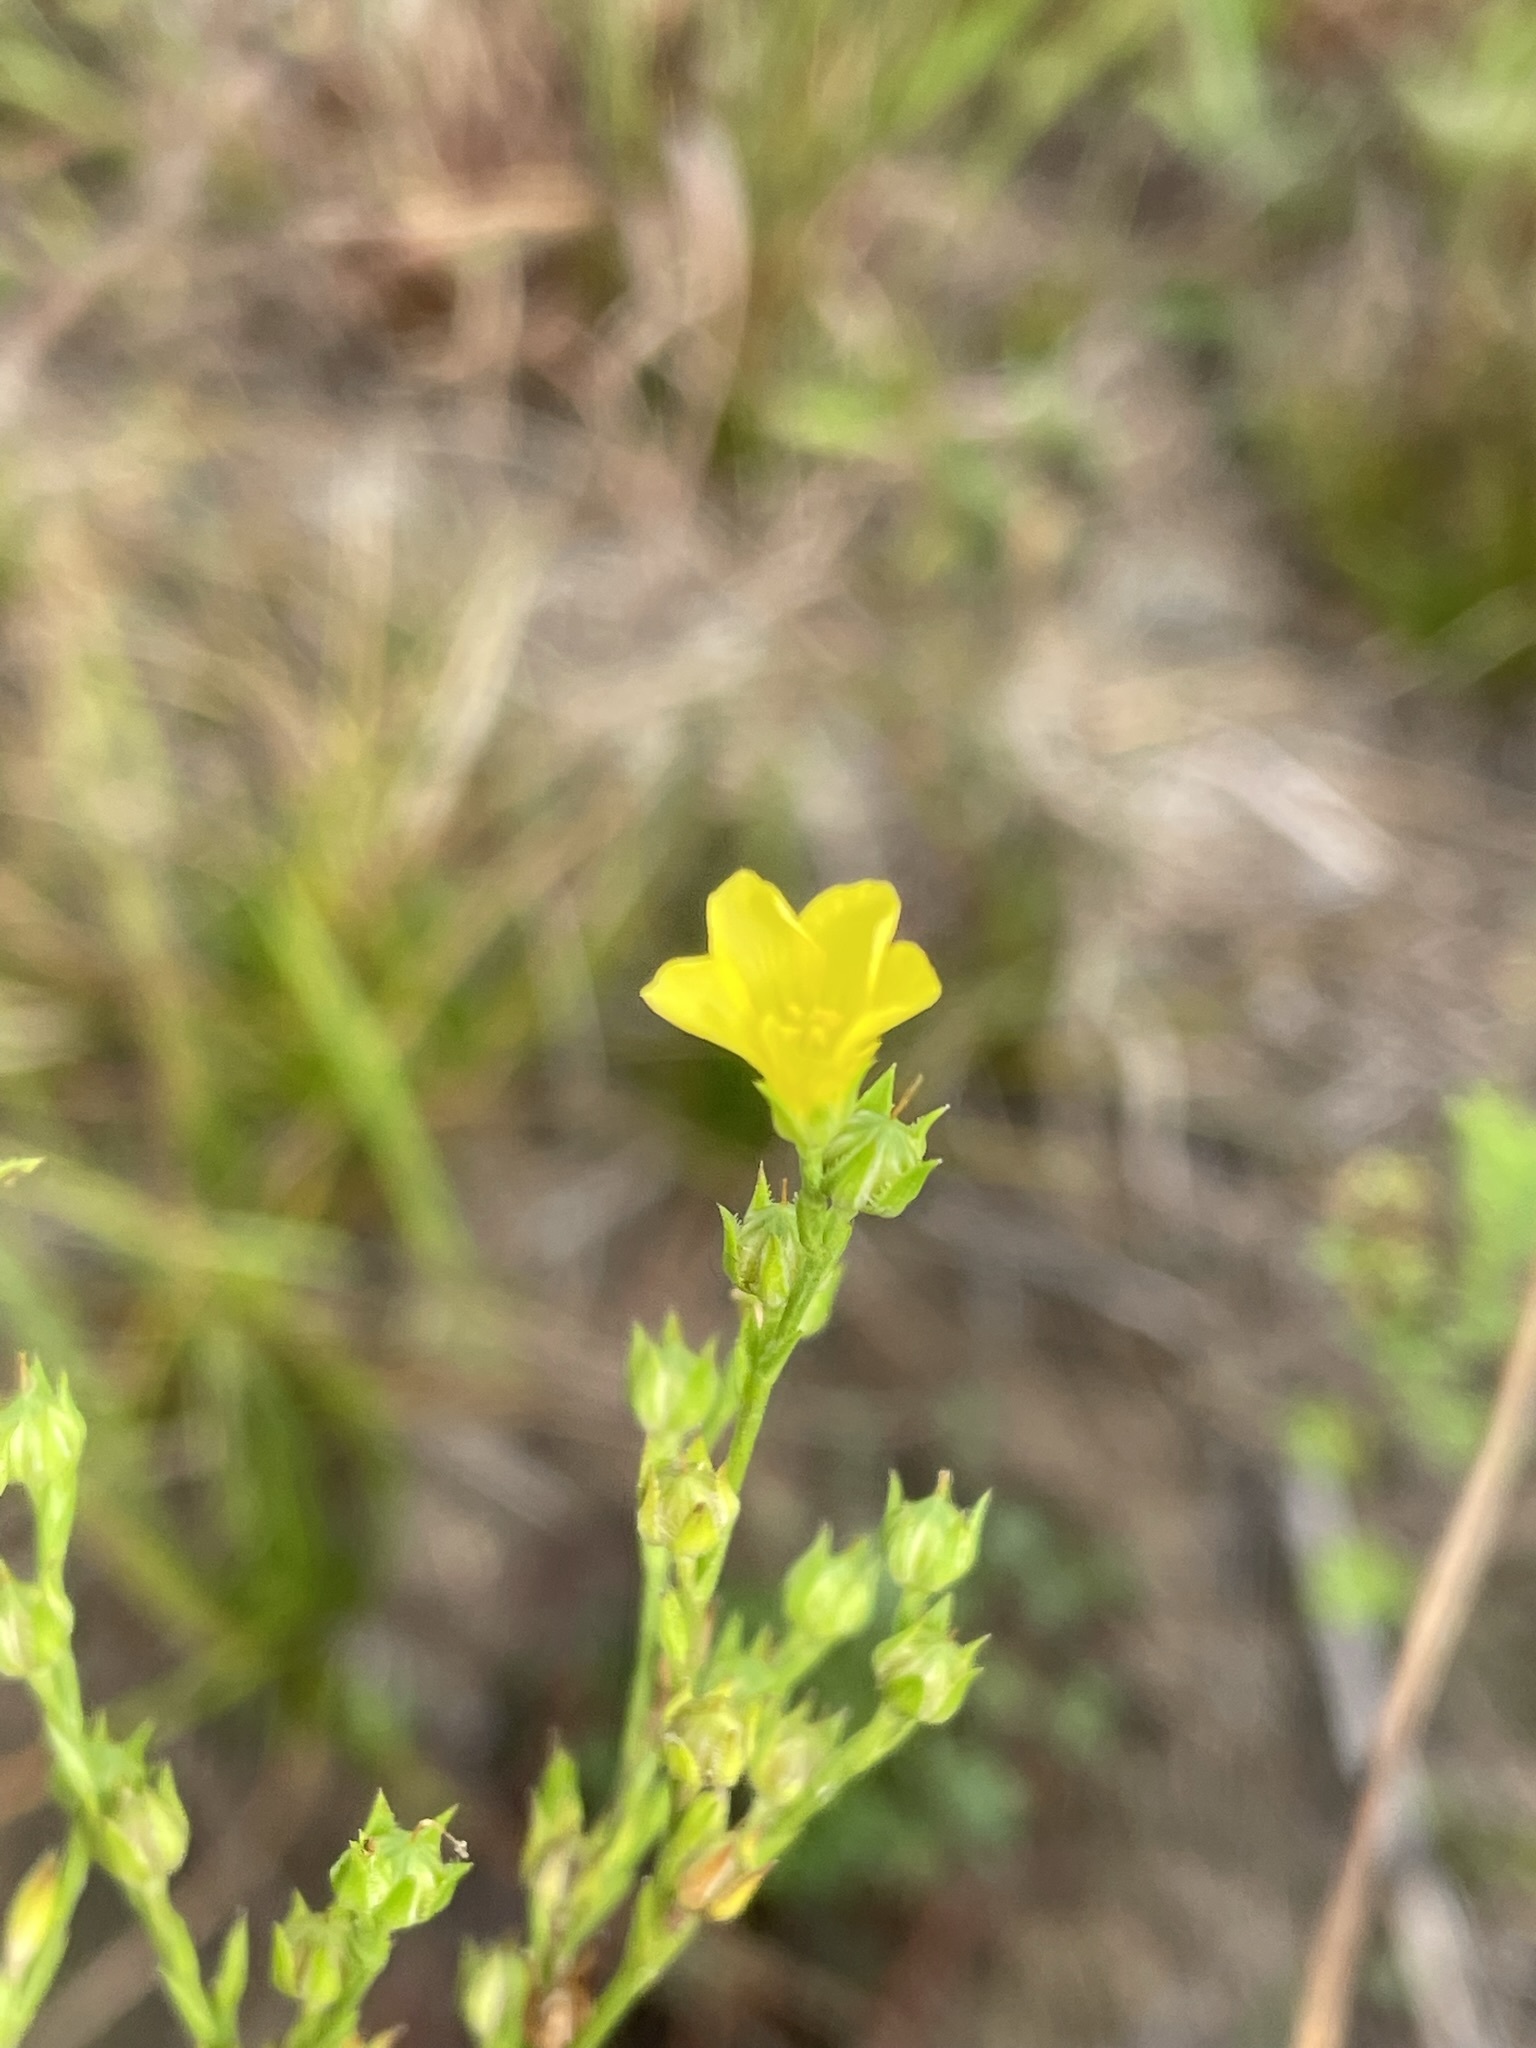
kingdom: Plantae
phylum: Tracheophyta
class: Magnoliopsida
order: Malpighiales
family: Linaceae
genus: Linum
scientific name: Linum sulcatum
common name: Grooved flax
